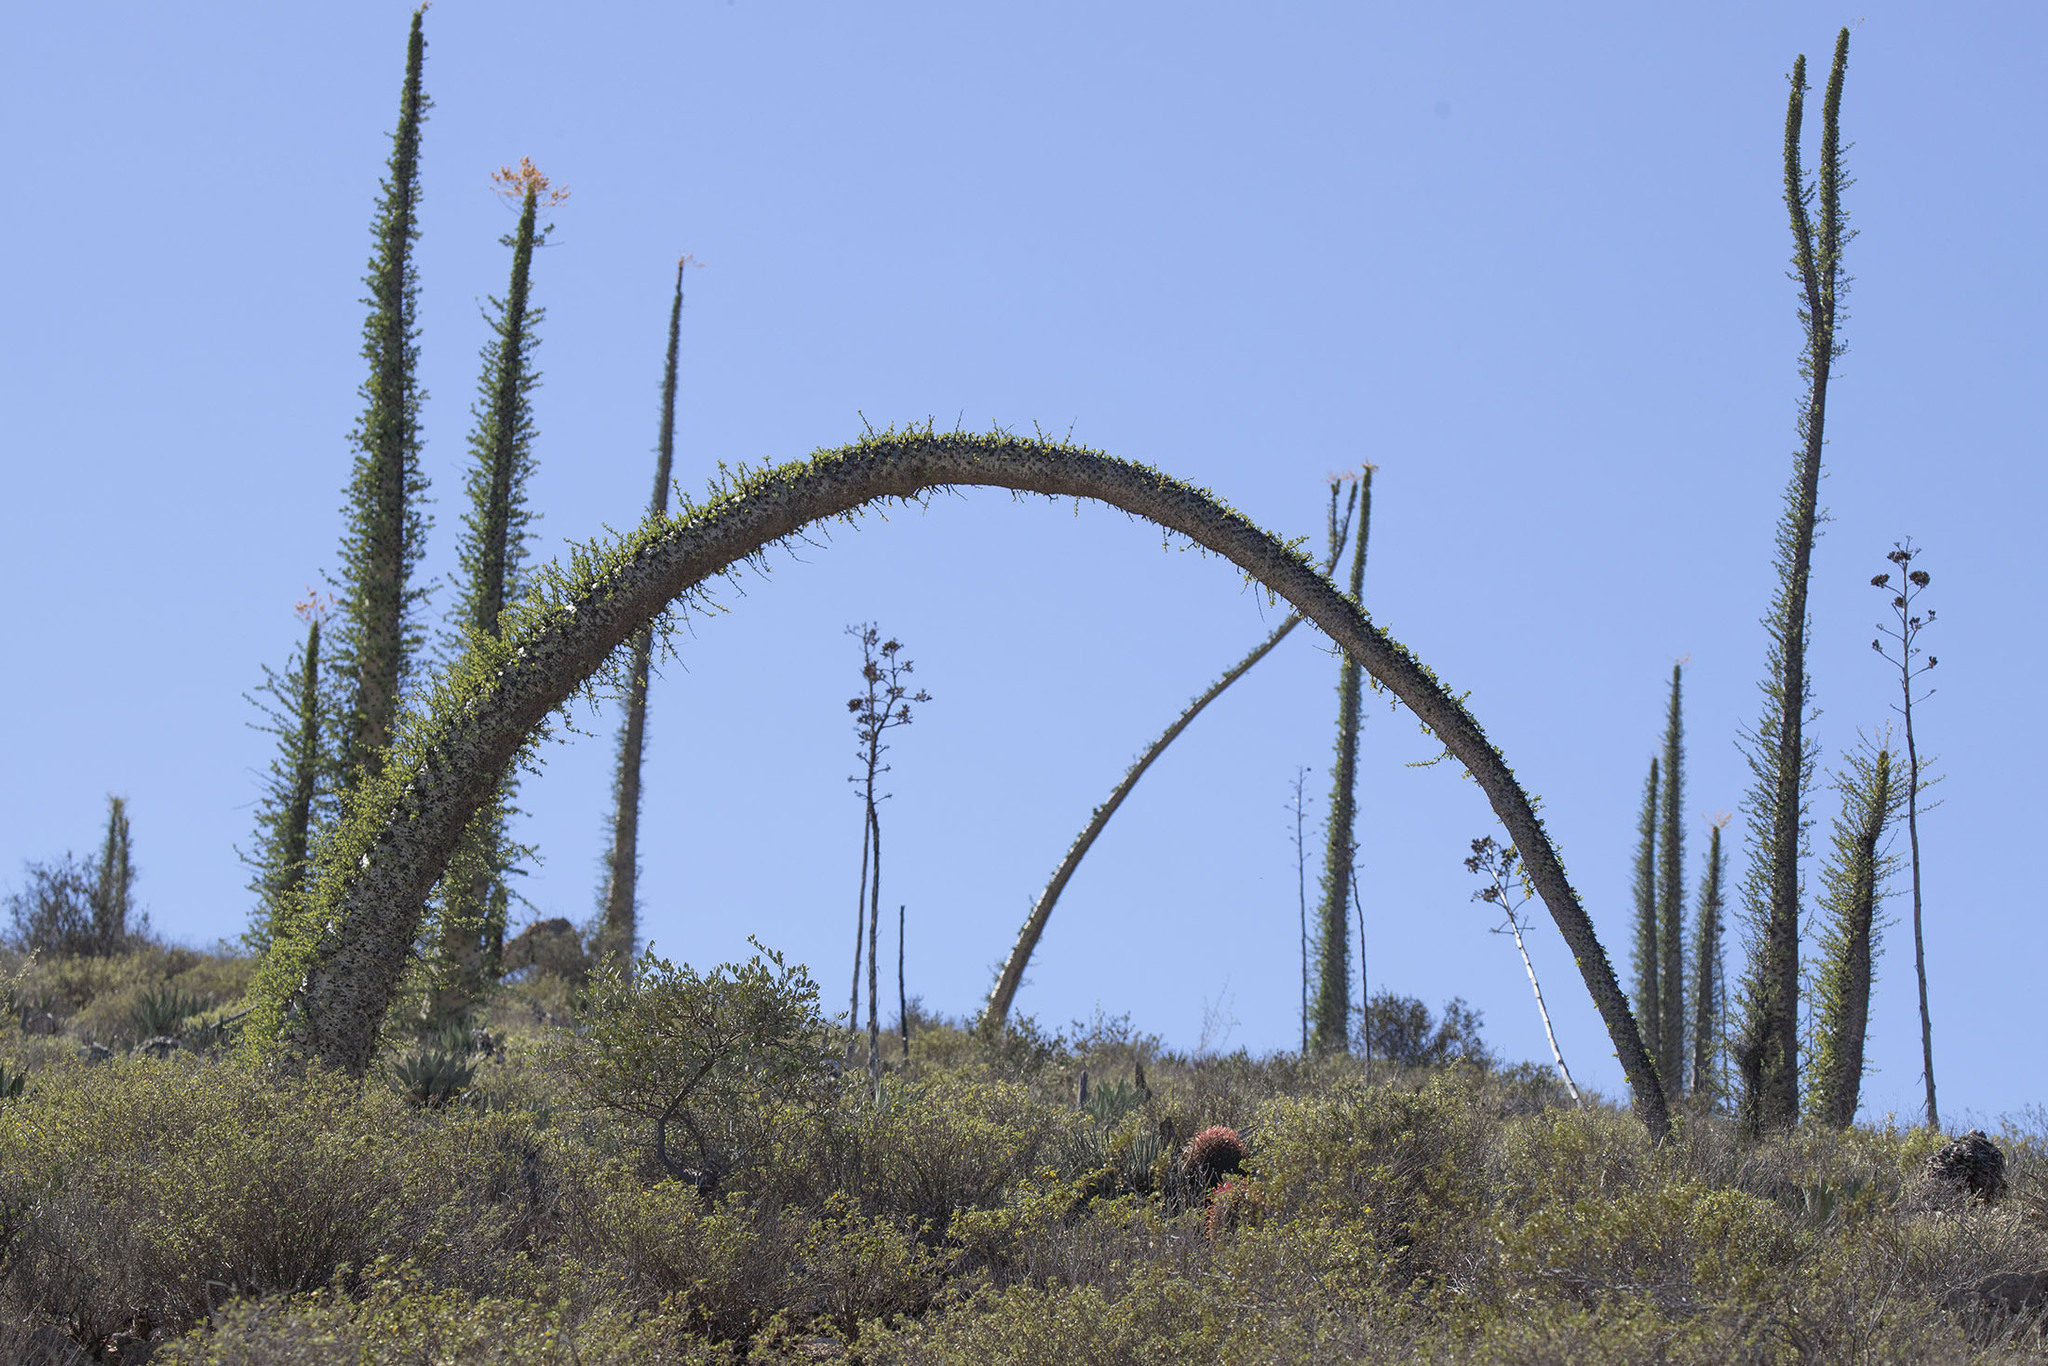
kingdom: Plantae
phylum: Tracheophyta
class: Magnoliopsida
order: Ericales
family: Fouquieriaceae
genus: Fouquieria
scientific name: Fouquieria columnaris
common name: Boojumtree
